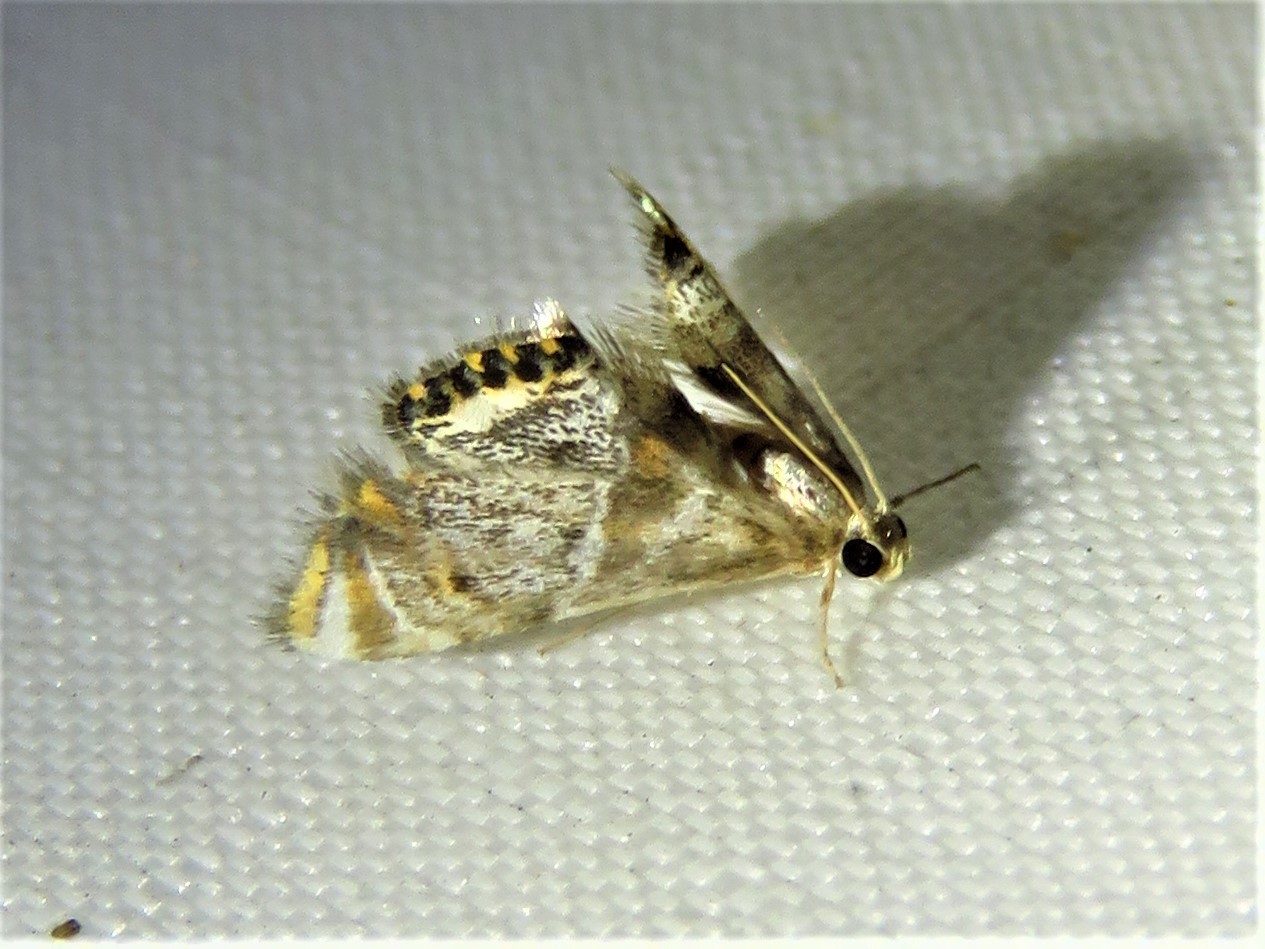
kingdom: Animalia
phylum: Arthropoda
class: Insecta
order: Lepidoptera
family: Crambidae
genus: Petrophila
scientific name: Petrophila fulicalis
